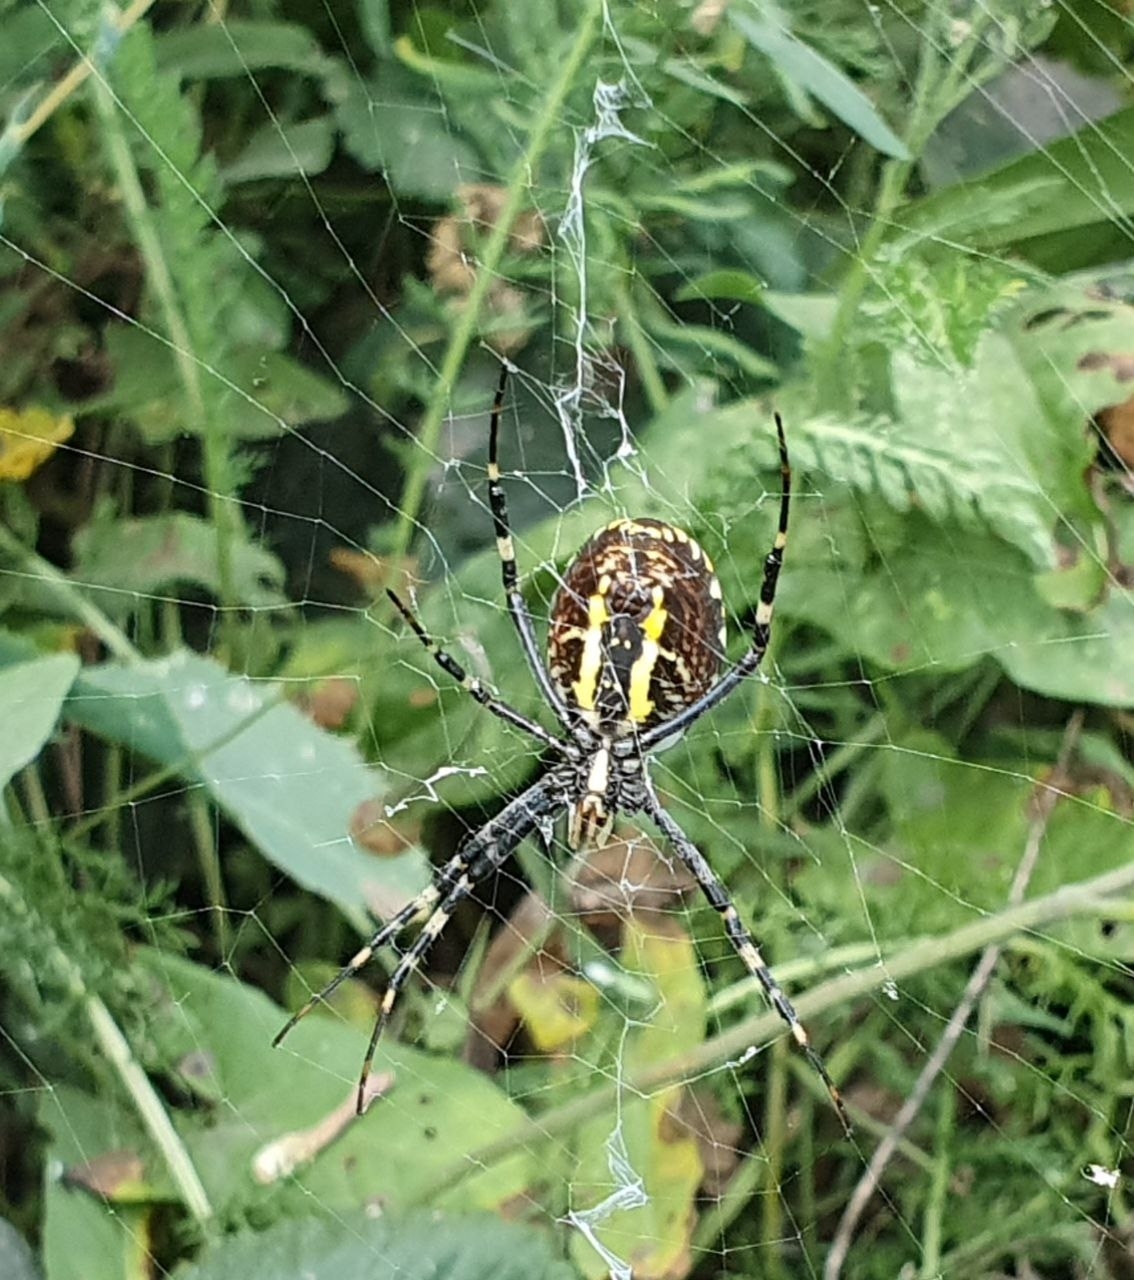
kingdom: Animalia
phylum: Arthropoda
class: Arachnida
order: Araneae
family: Araneidae
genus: Argiope
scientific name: Argiope bruennichi
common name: Wasp spider
